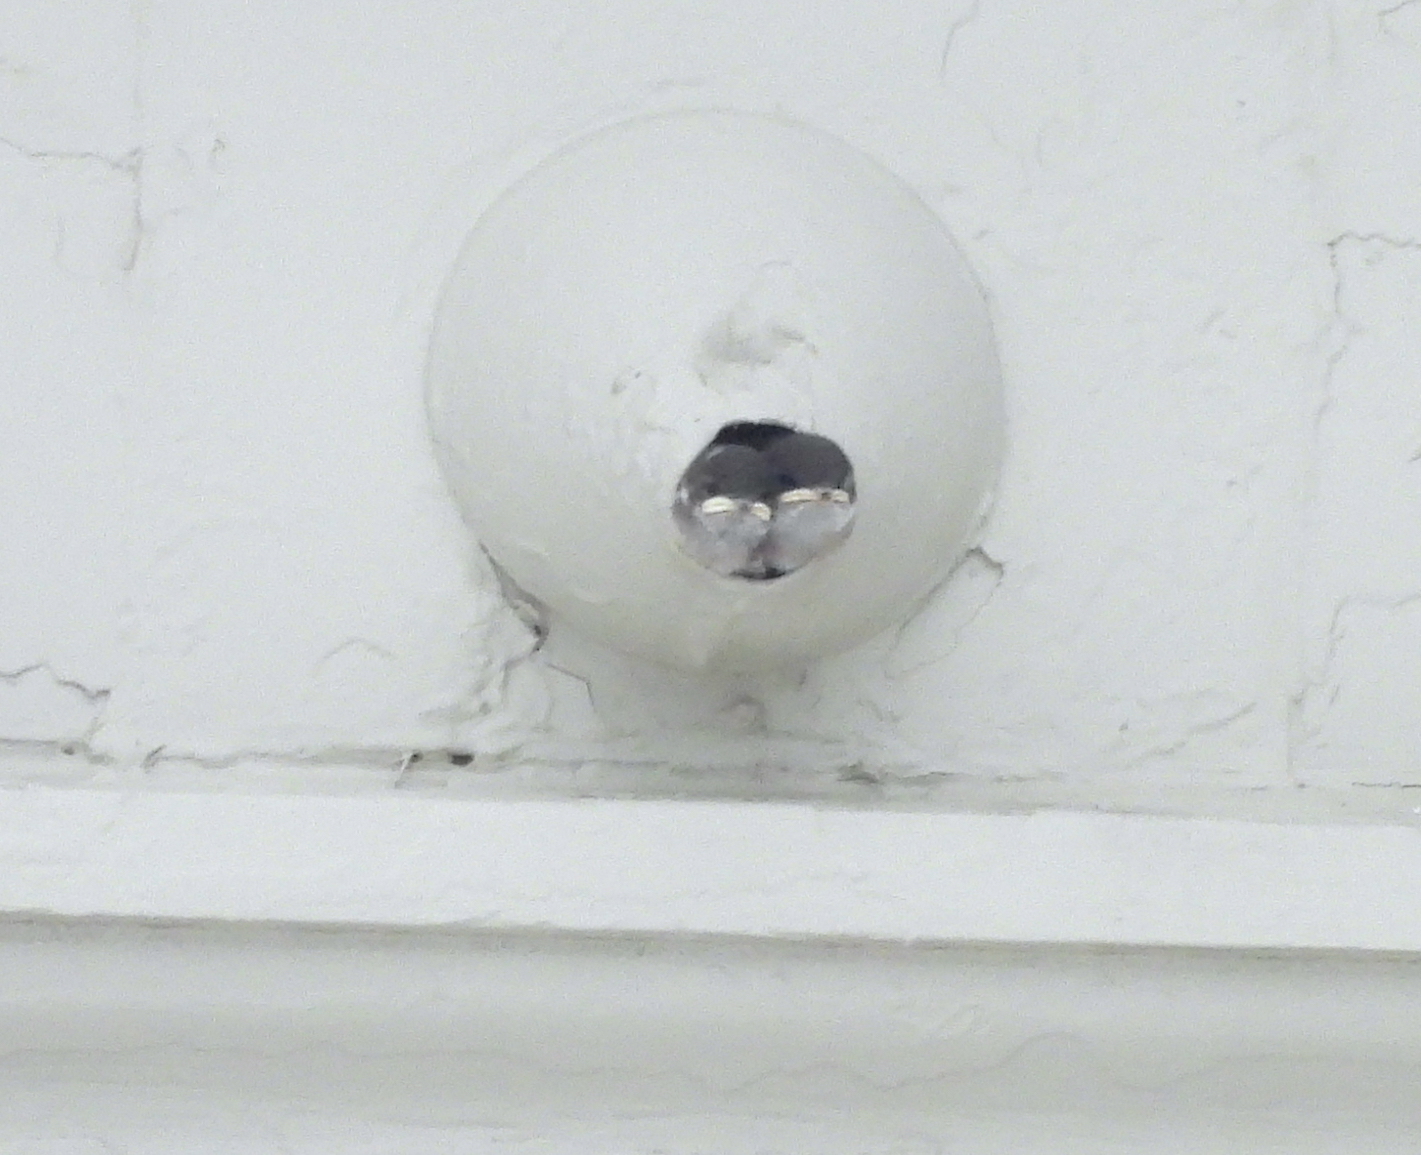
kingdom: Animalia
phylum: Chordata
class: Aves
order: Passeriformes
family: Hirundinidae
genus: Tachycineta
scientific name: Tachycineta thalassina
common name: Violet-green swallow
